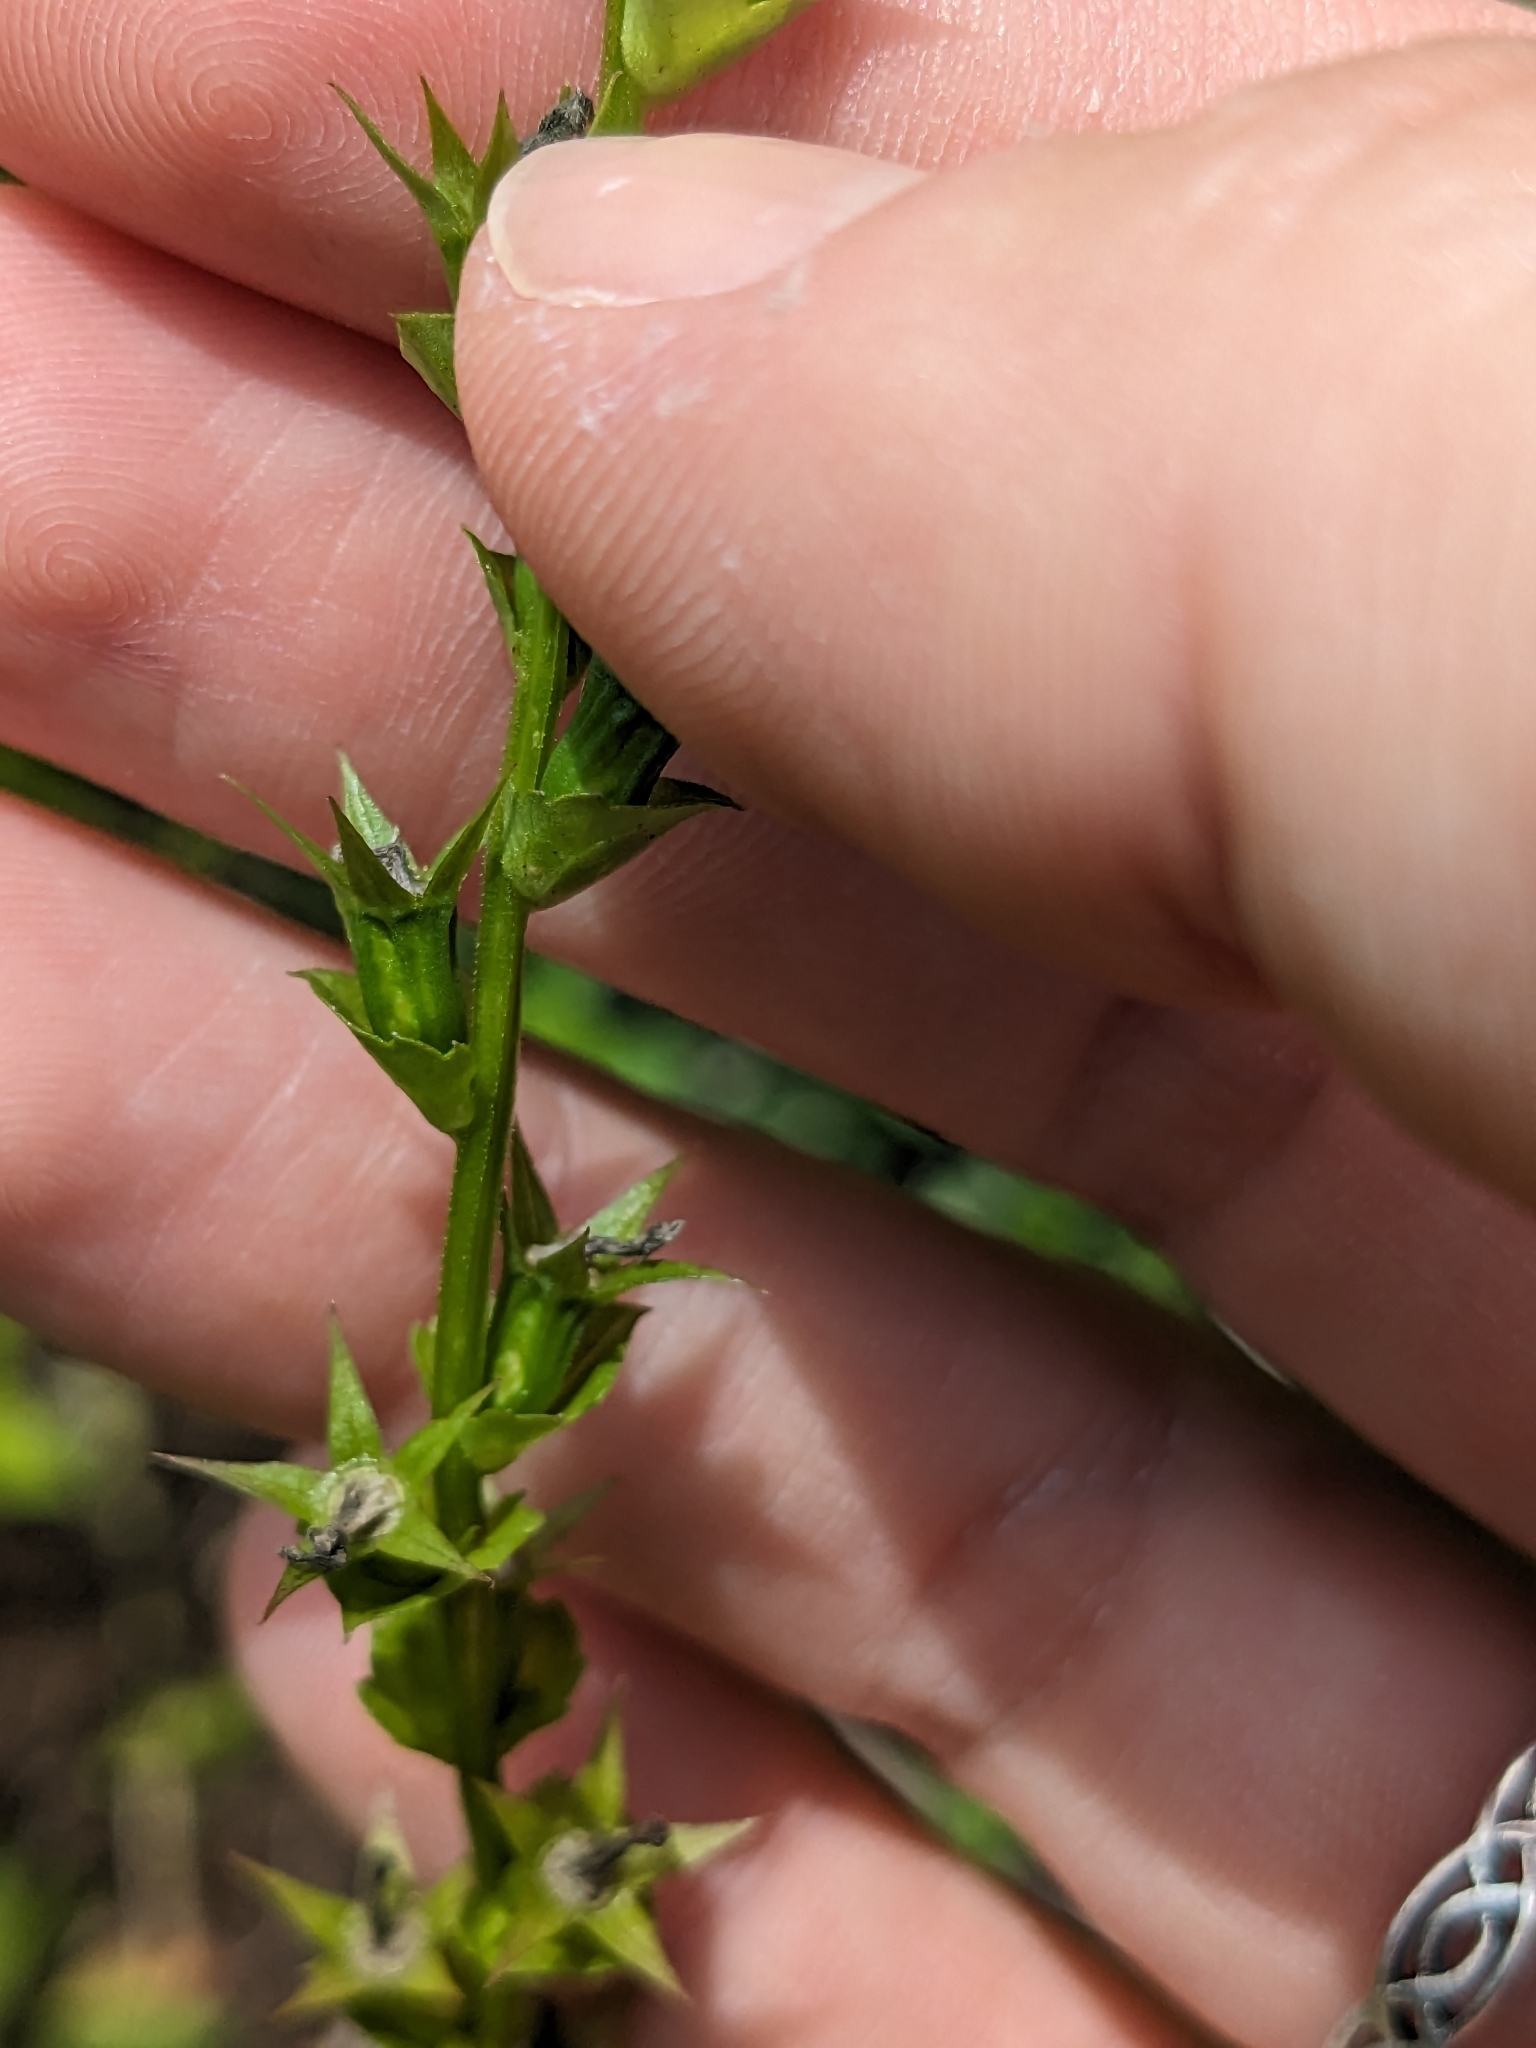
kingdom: Plantae
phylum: Tracheophyta
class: Magnoliopsida
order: Asterales
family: Campanulaceae
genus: Triodanis
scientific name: Triodanis perfoliata
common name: Clasping venus' looking-glass
